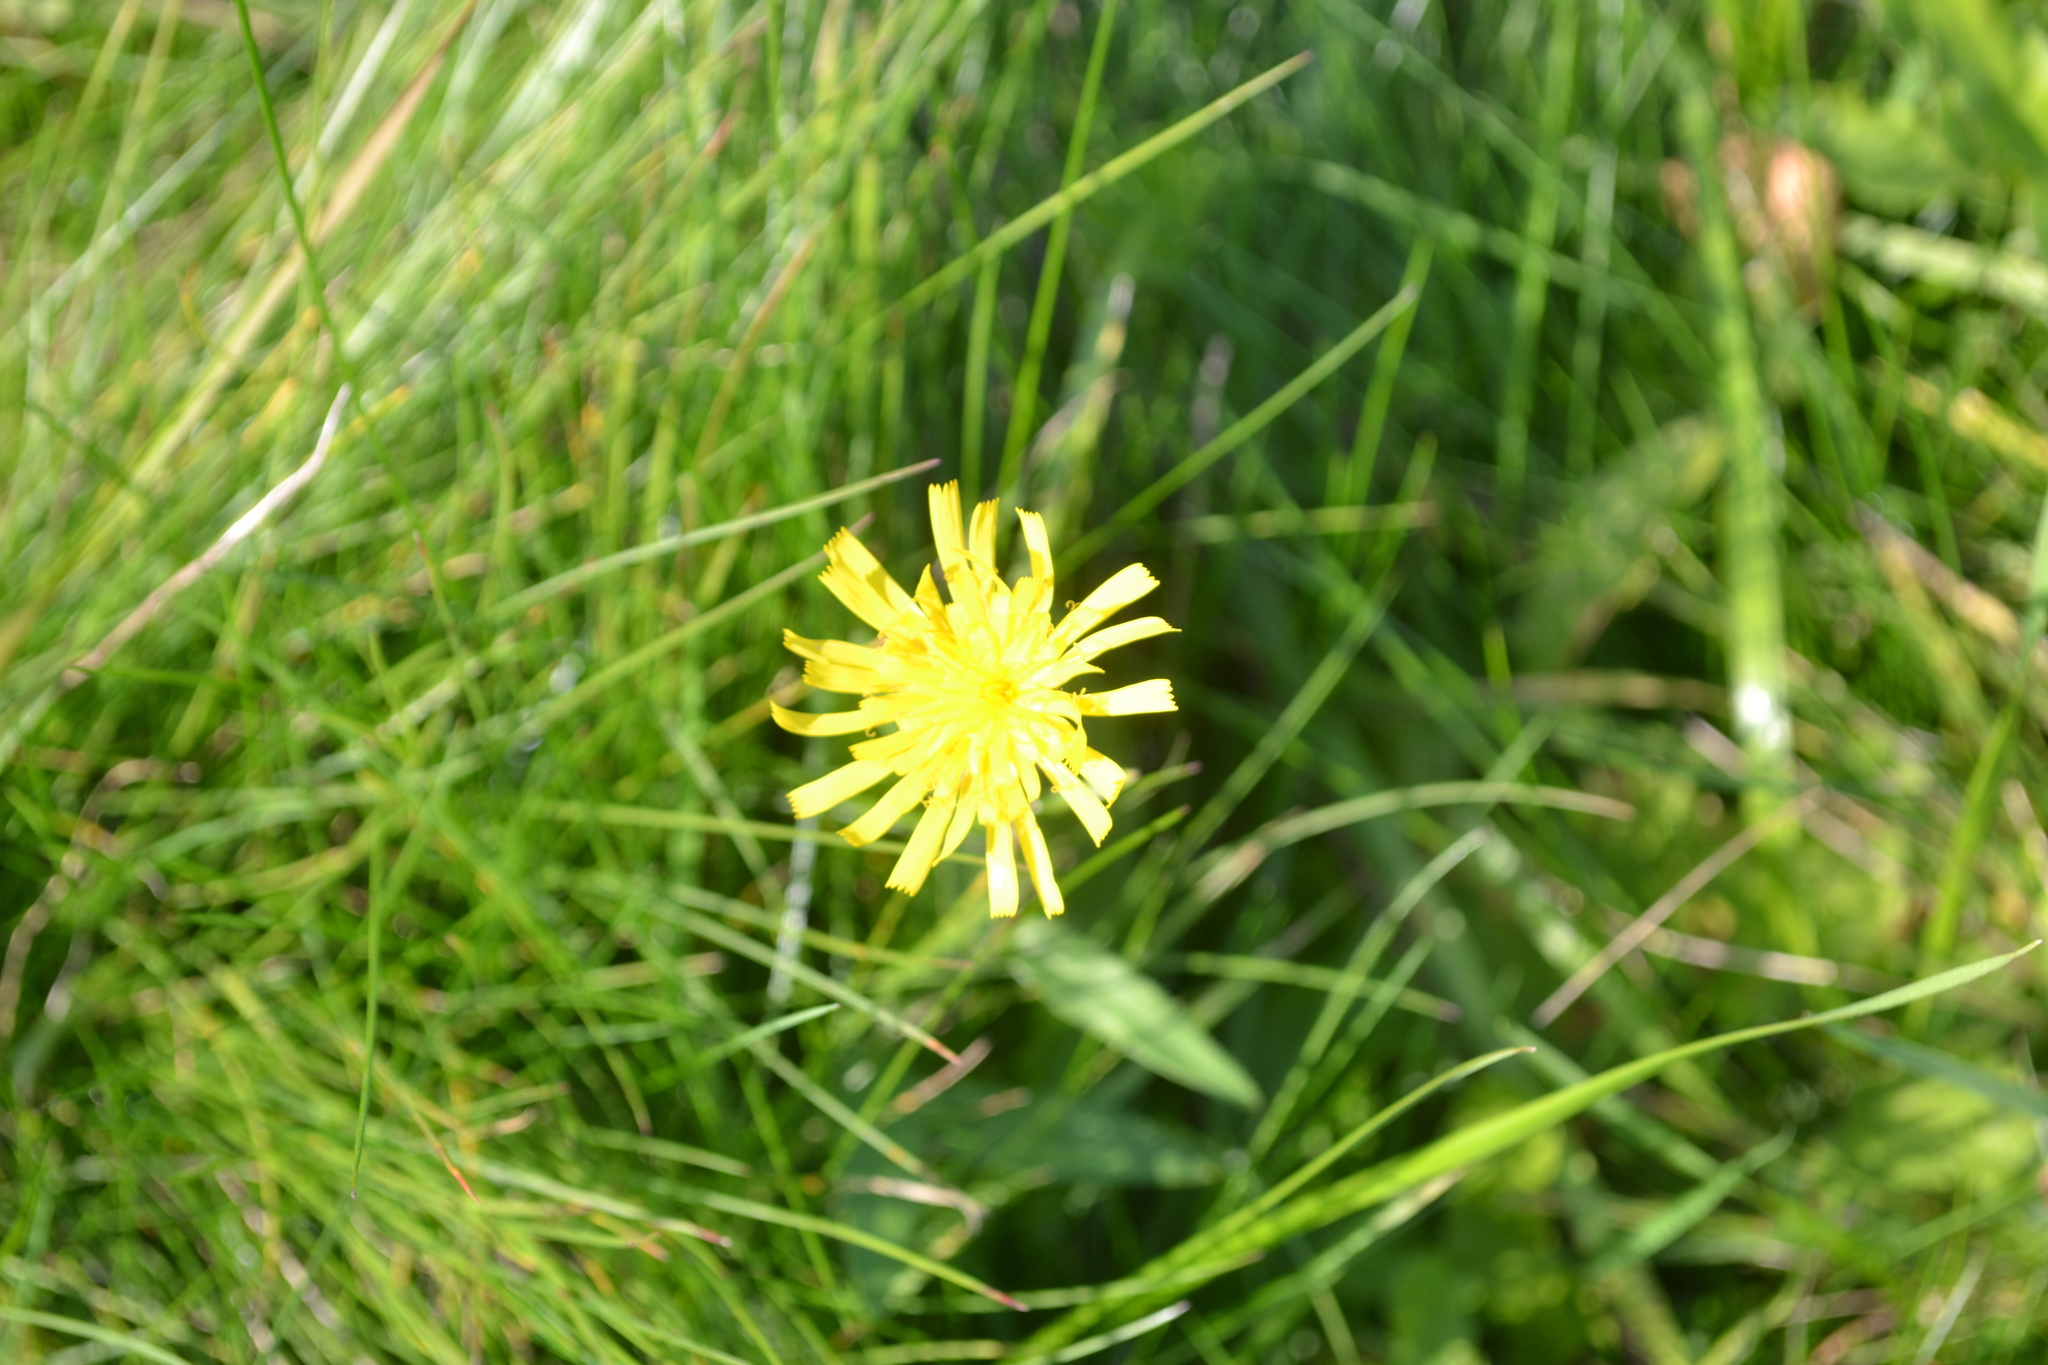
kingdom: Plantae
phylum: Tracheophyta
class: Magnoliopsida
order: Asterales
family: Asteraceae
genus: Scorzoneroides
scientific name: Scorzoneroides autumnalis
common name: Autumn hawkbit
